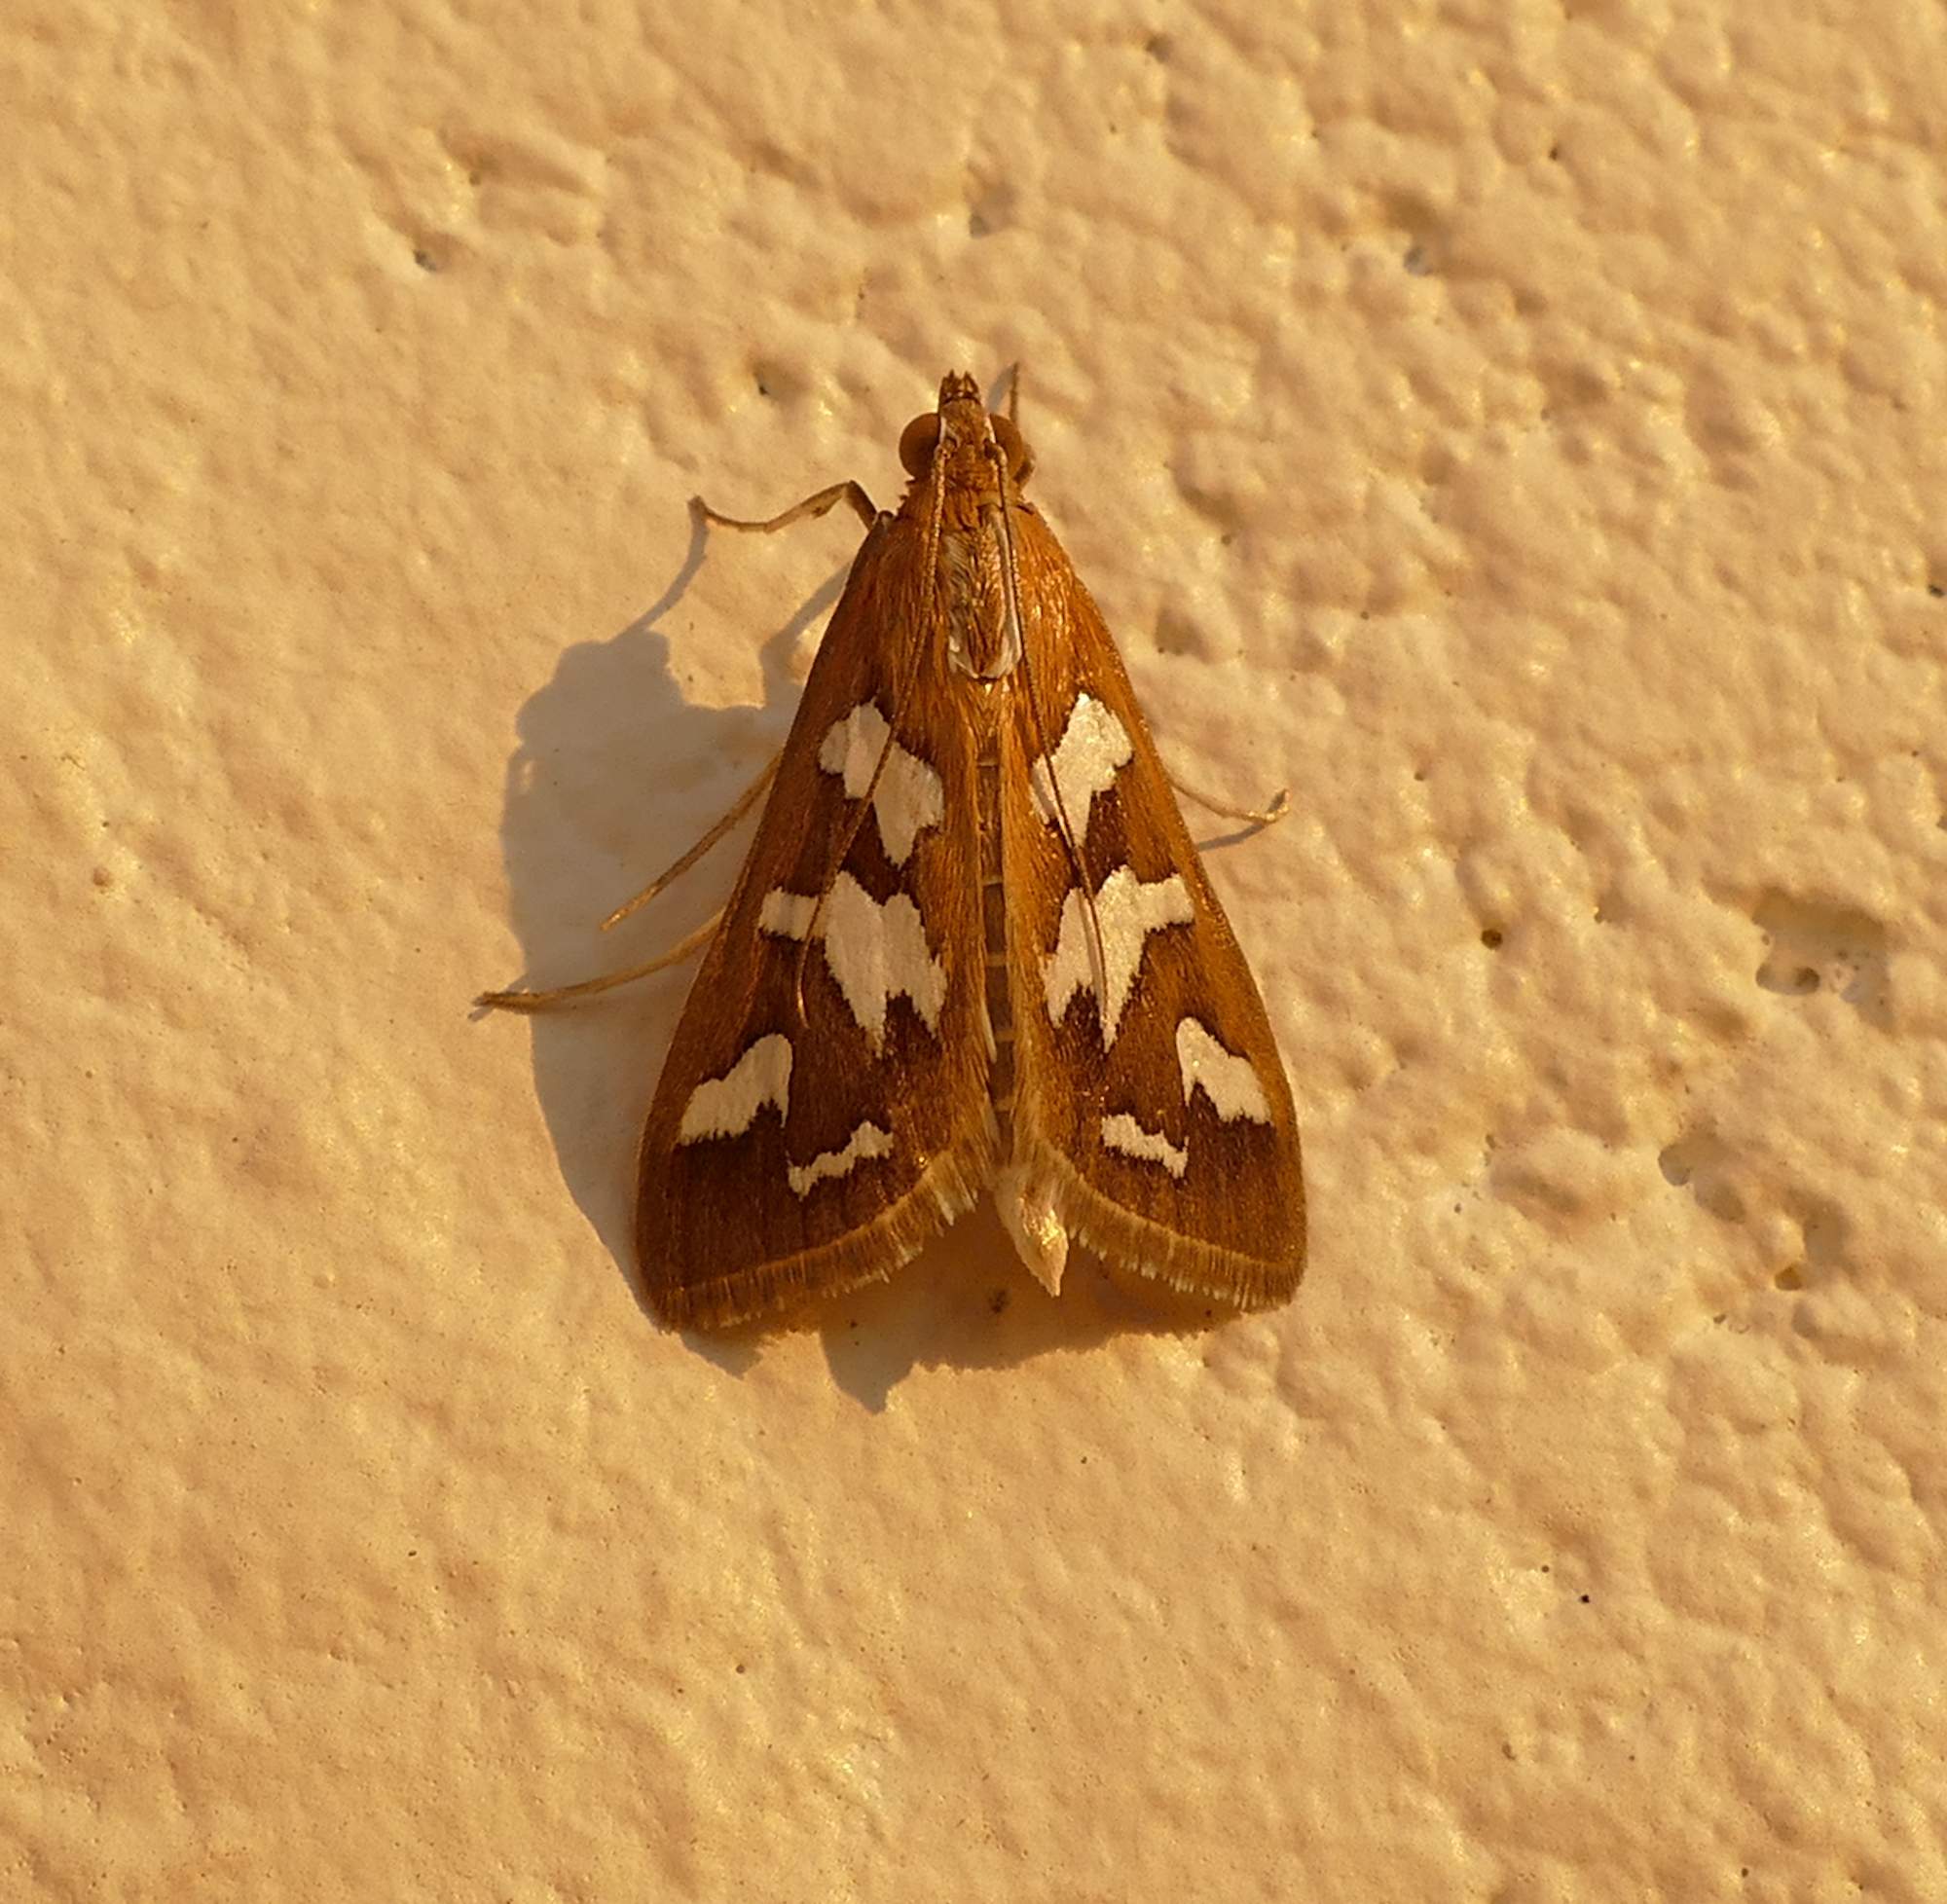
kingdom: Animalia
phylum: Arthropoda
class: Insecta
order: Lepidoptera
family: Crambidae
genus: Diastictis
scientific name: Diastictis fracturalis
